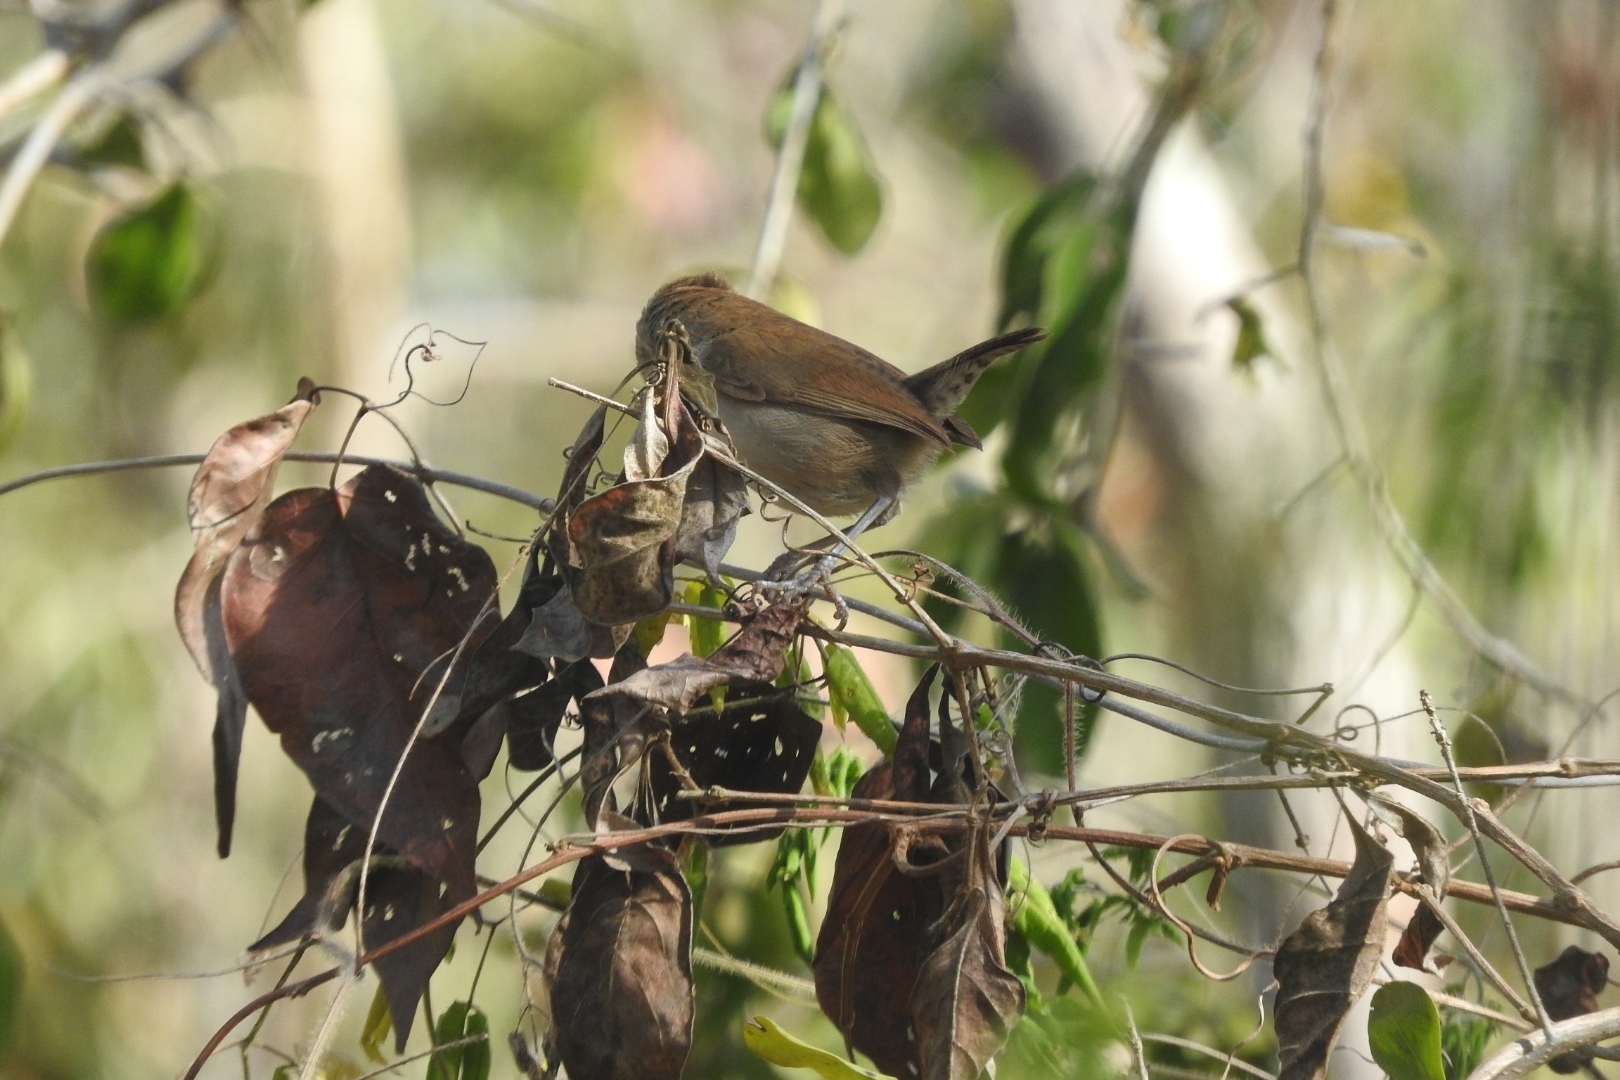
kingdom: Animalia
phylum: Chordata
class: Aves
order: Passeriformes
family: Troglodytidae
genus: Uropsila
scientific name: Uropsila leucogastra
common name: White-bellied wren
